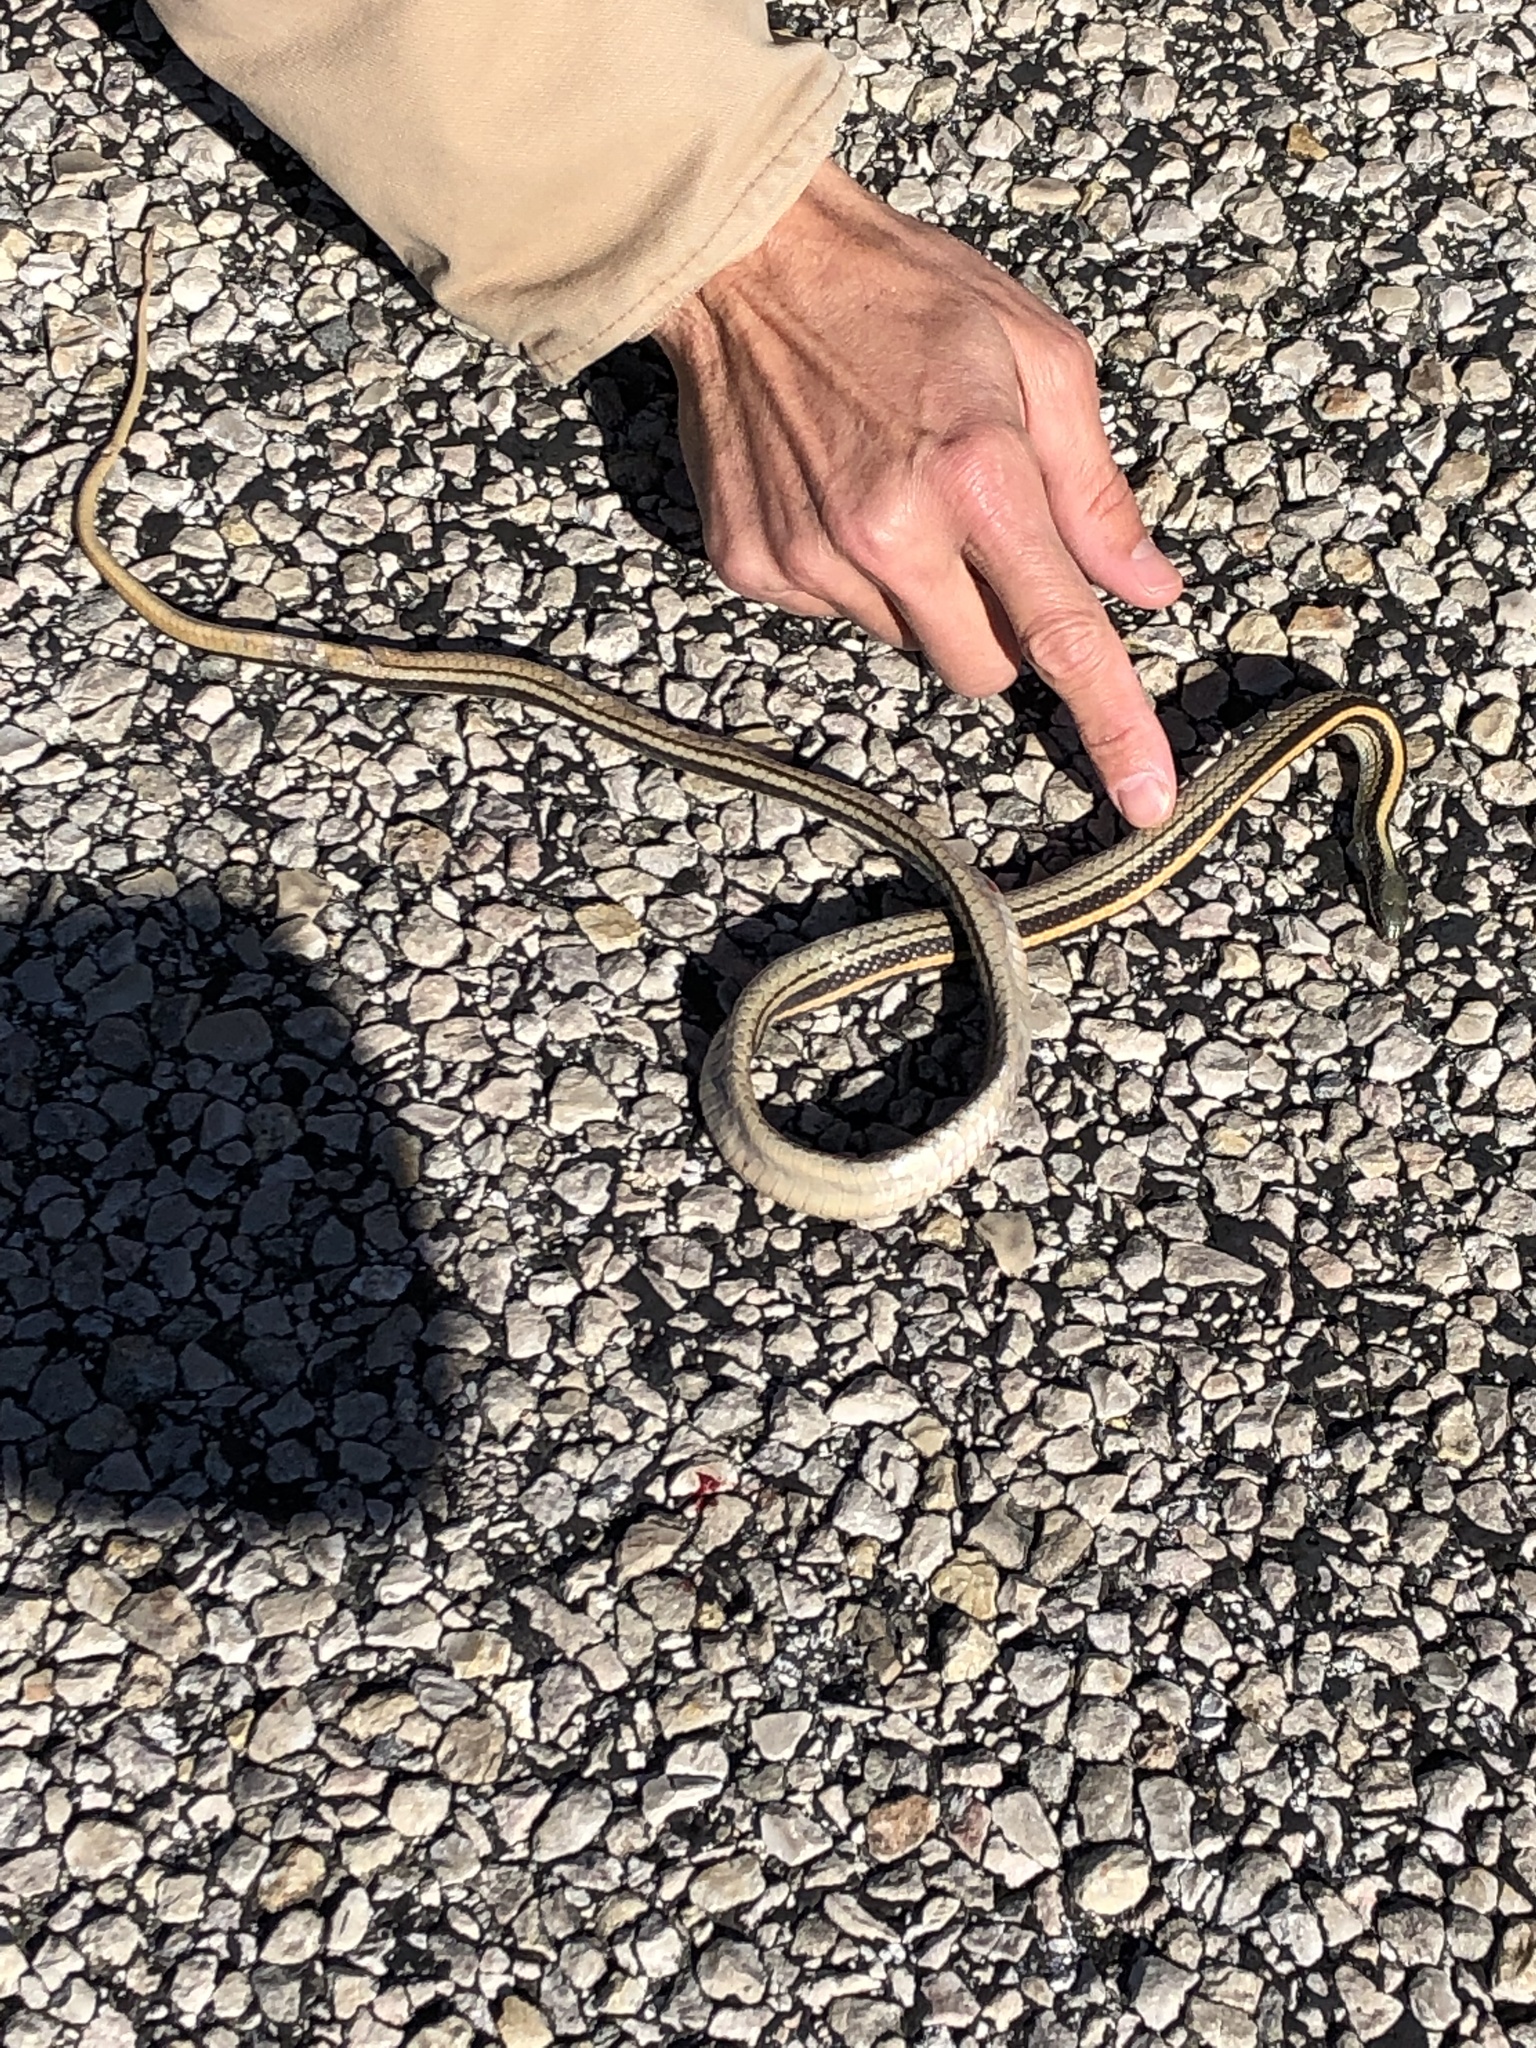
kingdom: Animalia
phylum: Chordata
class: Squamata
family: Colubridae
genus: Salvadora
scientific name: Salvadora lineata
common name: Texas patchnose snake
